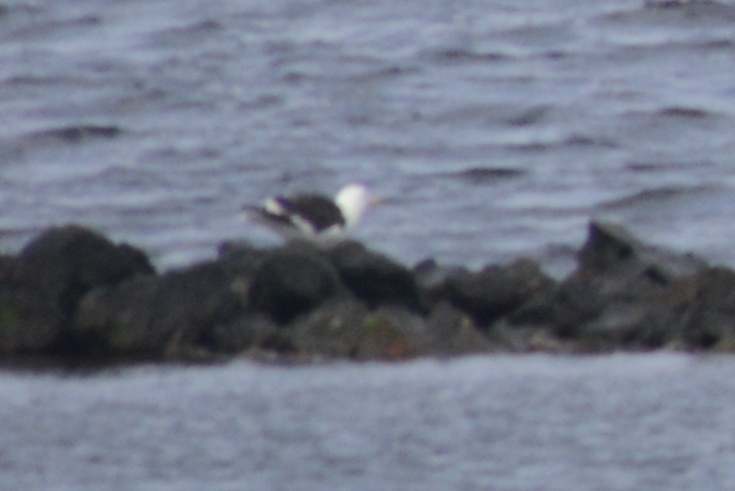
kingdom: Animalia
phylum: Chordata
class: Aves
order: Charadriiformes
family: Laridae
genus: Larus
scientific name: Larus dominicanus
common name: Kelp gull
